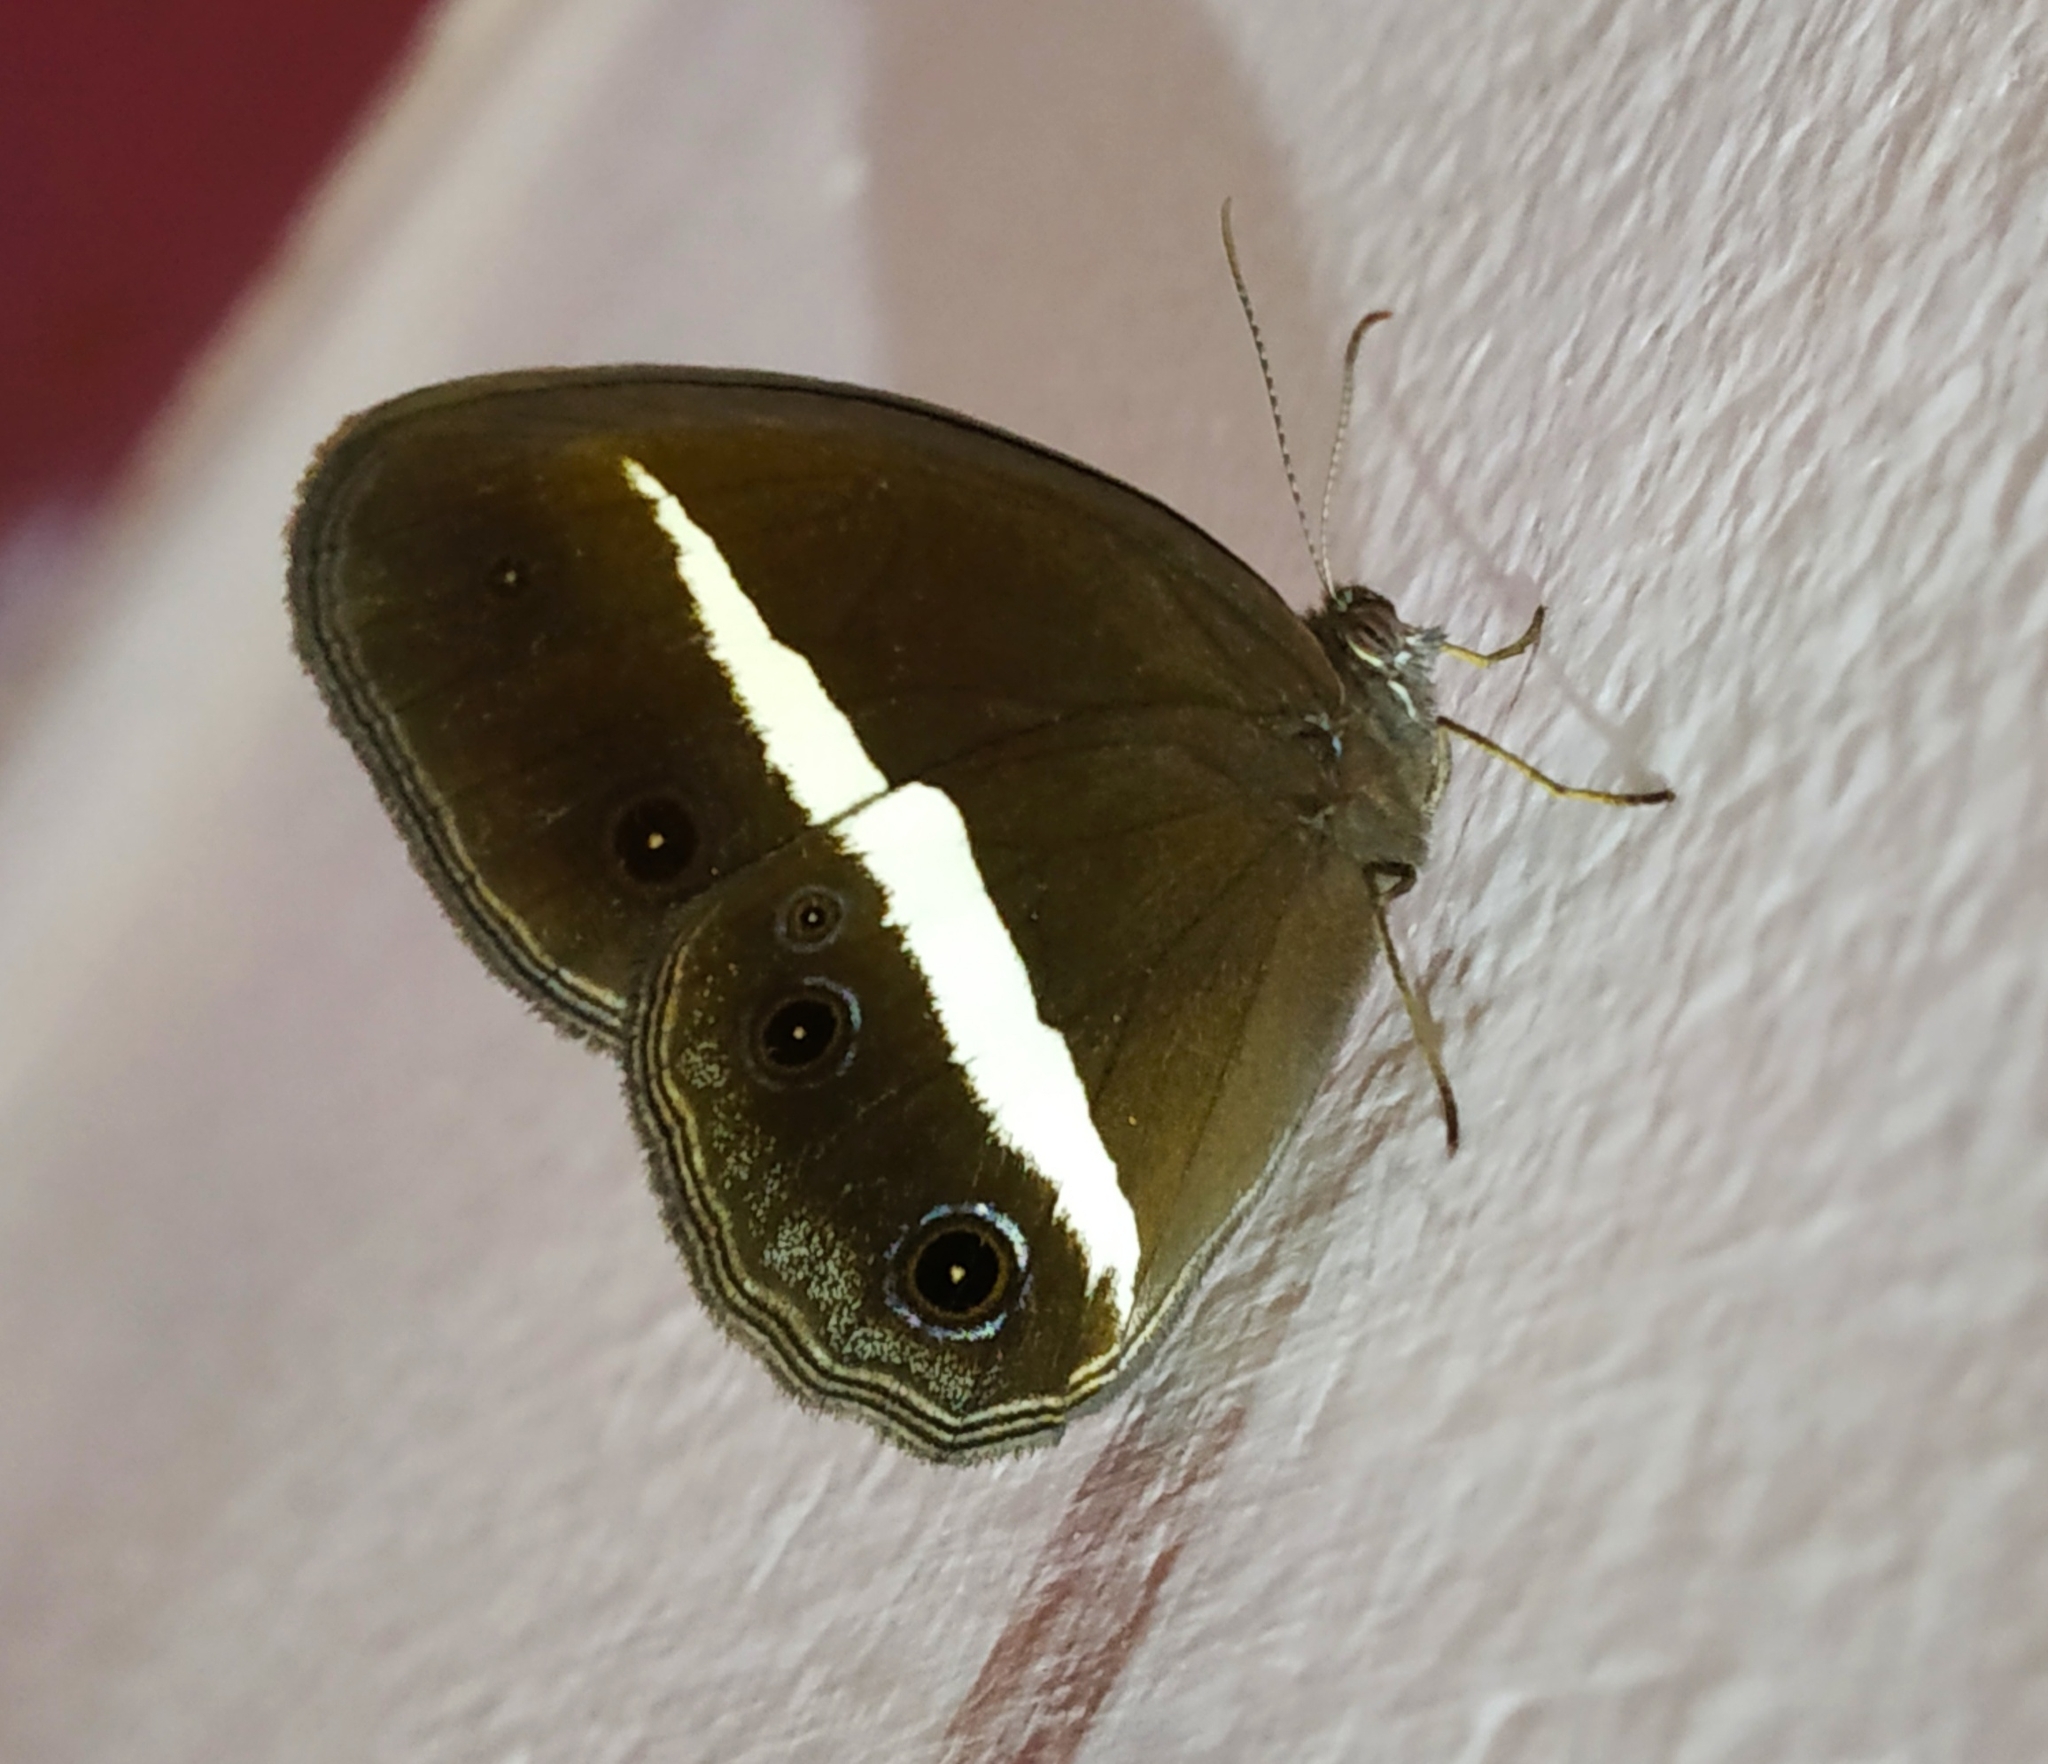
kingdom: Animalia
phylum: Arthropoda
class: Insecta
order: Lepidoptera
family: Nymphalidae
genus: Orsotriaena
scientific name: Orsotriaena medus
